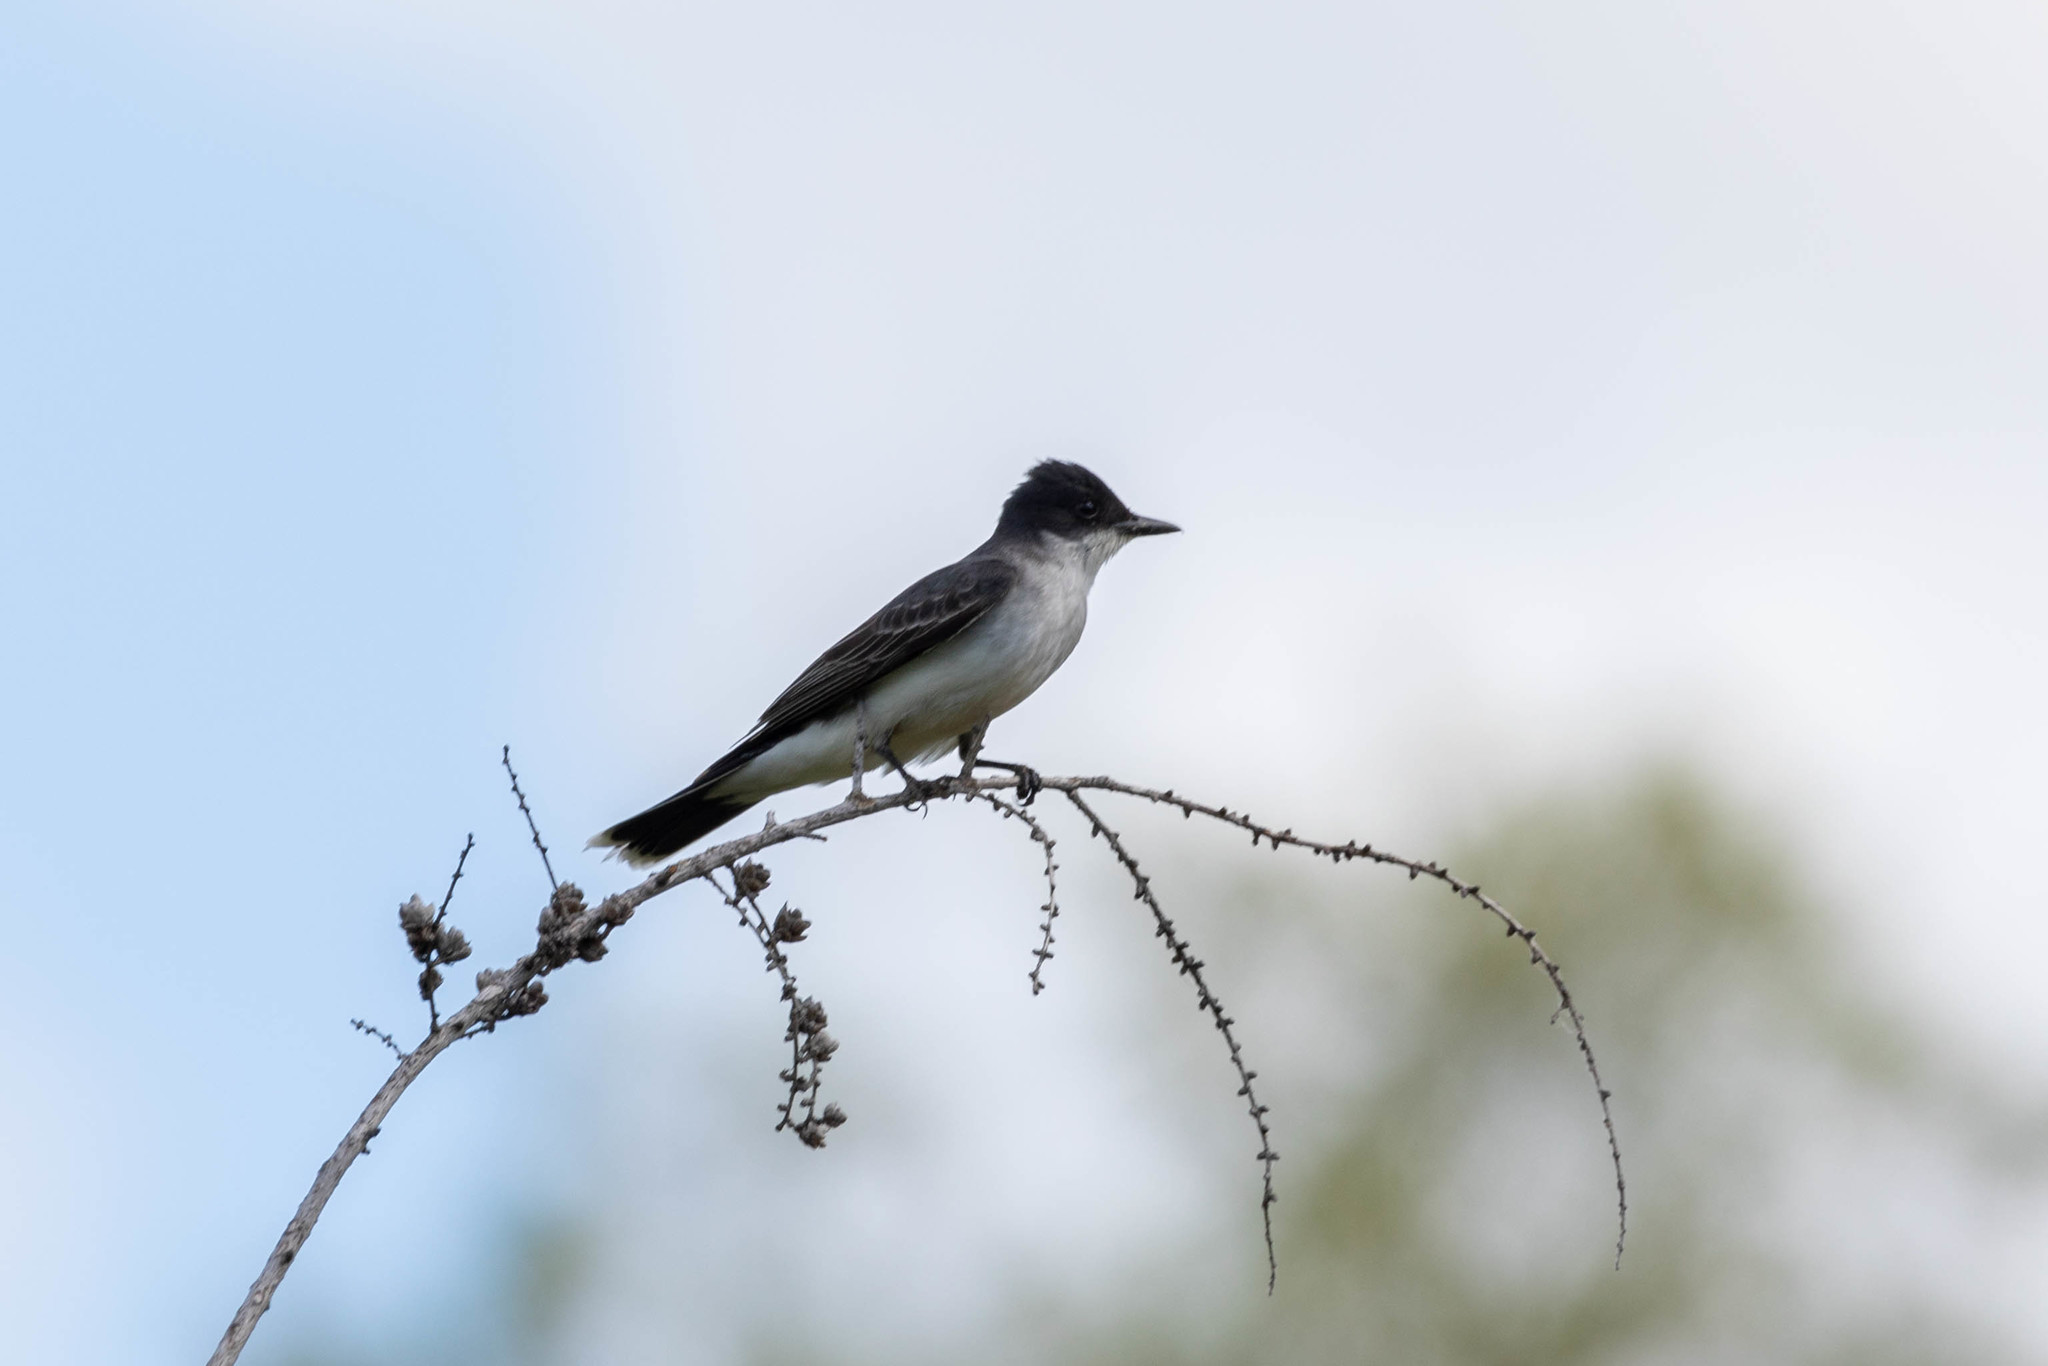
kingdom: Animalia
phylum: Chordata
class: Aves
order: Passeriformes
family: Tyrannidae
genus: Tyrannus
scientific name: Tyrannus tyrannus
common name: Eastern kingbird
